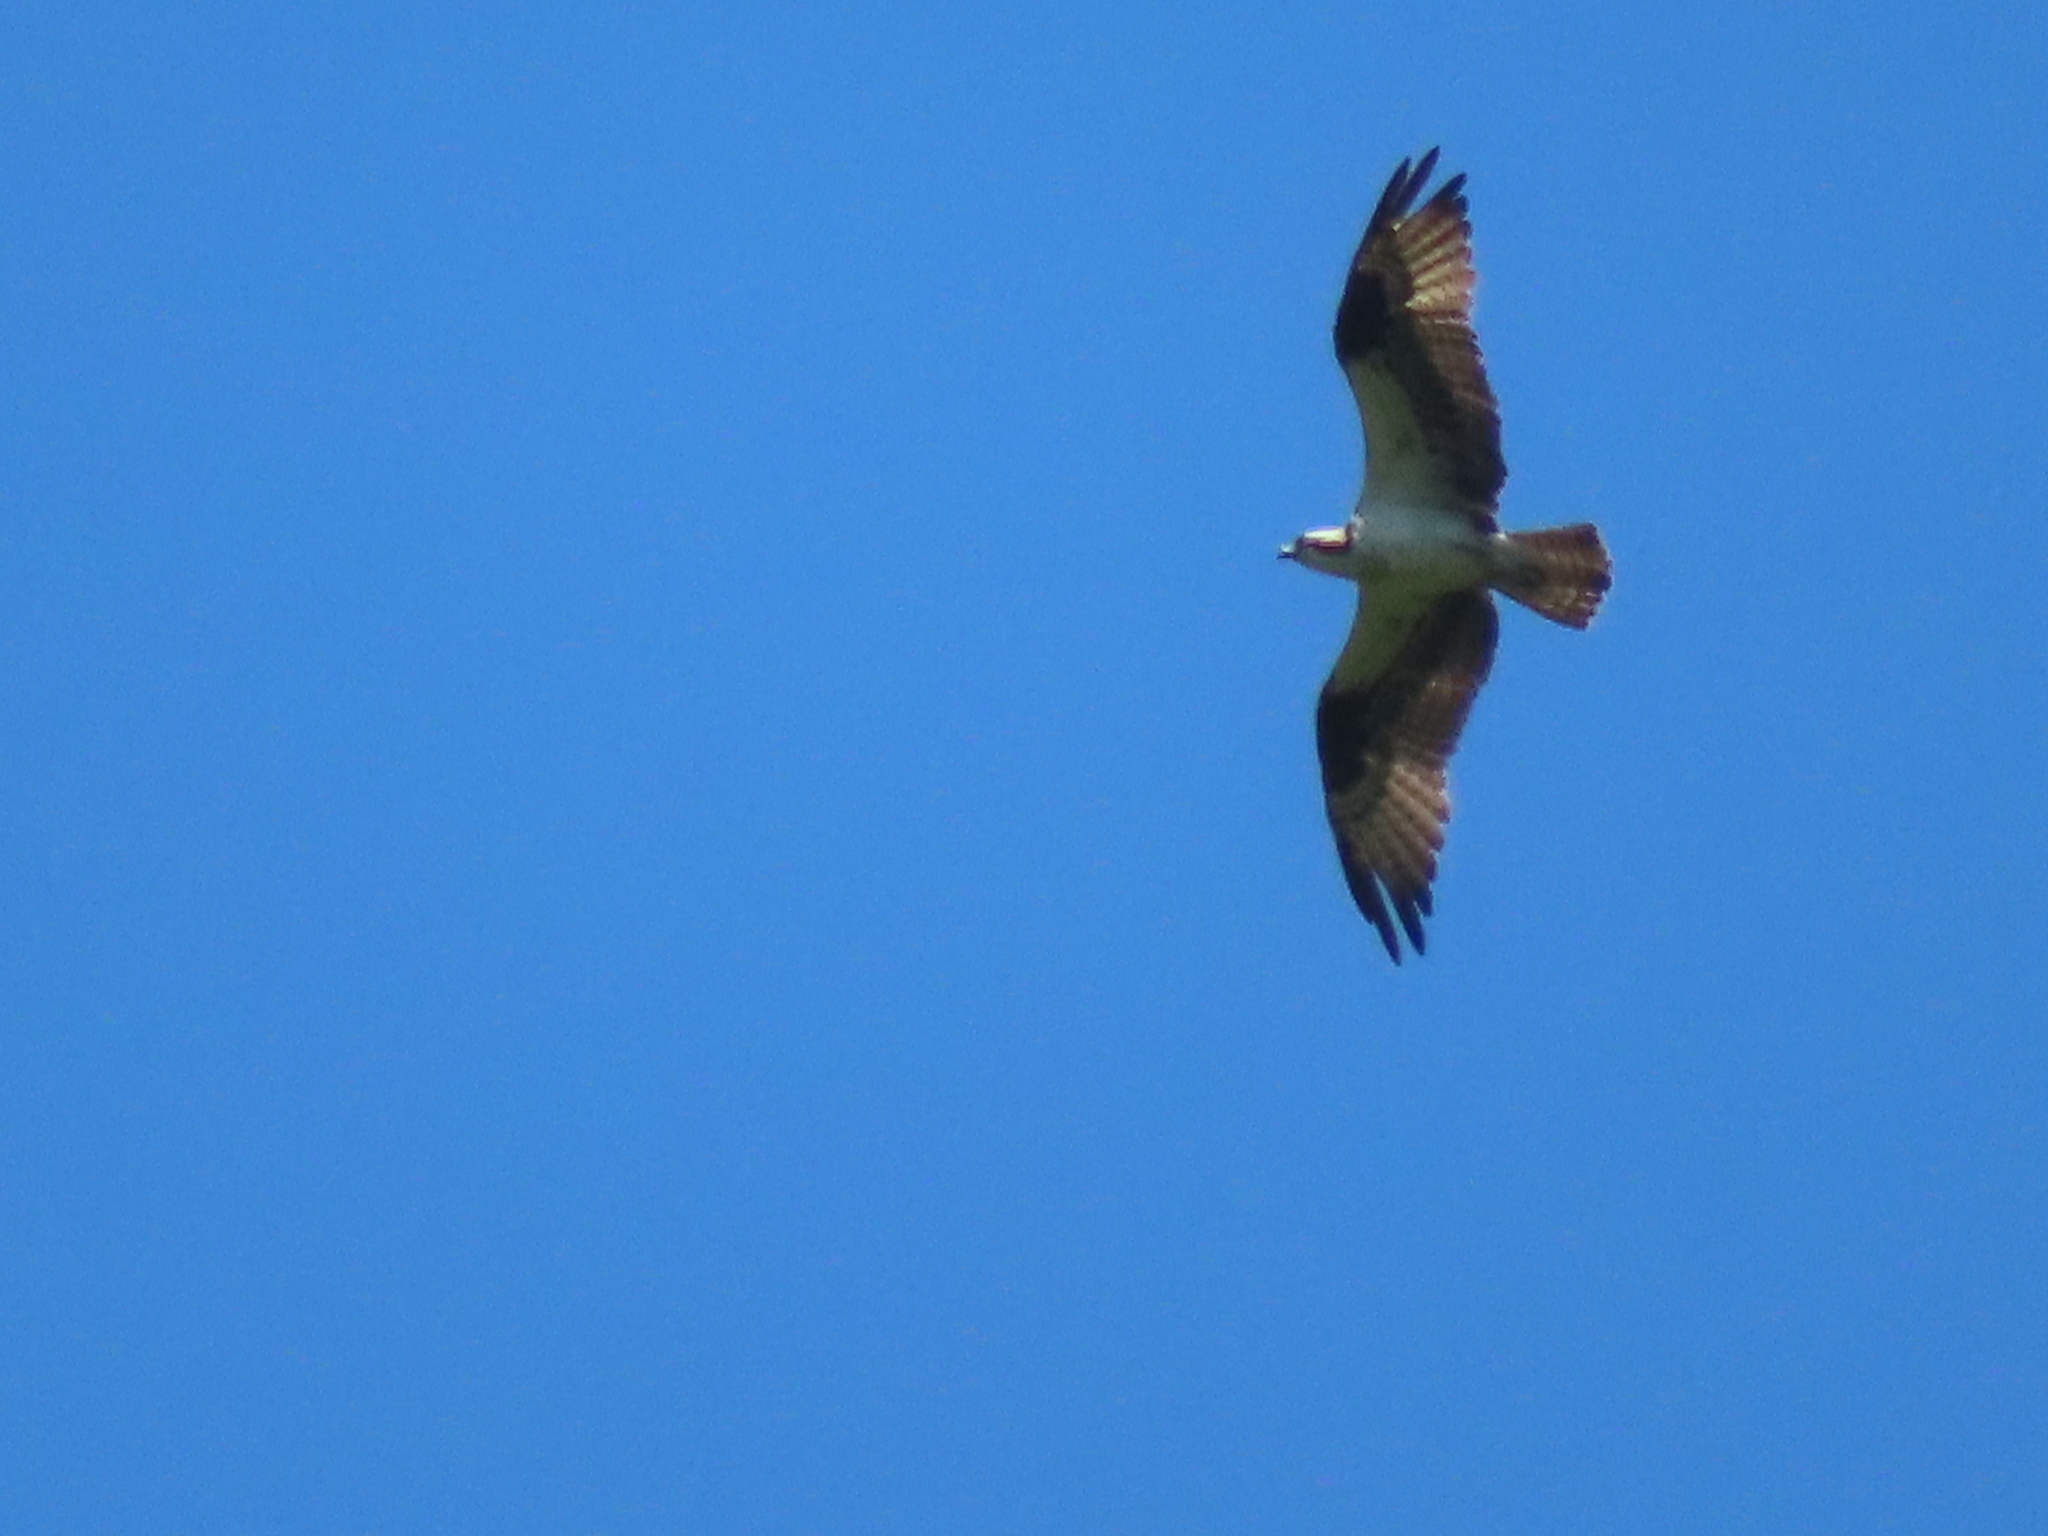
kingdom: Animalia
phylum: Chordata
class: Aves
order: Accipitriformes
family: Pandionidae
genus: Pandion
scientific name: Pandion haliaetus
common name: Osprey
